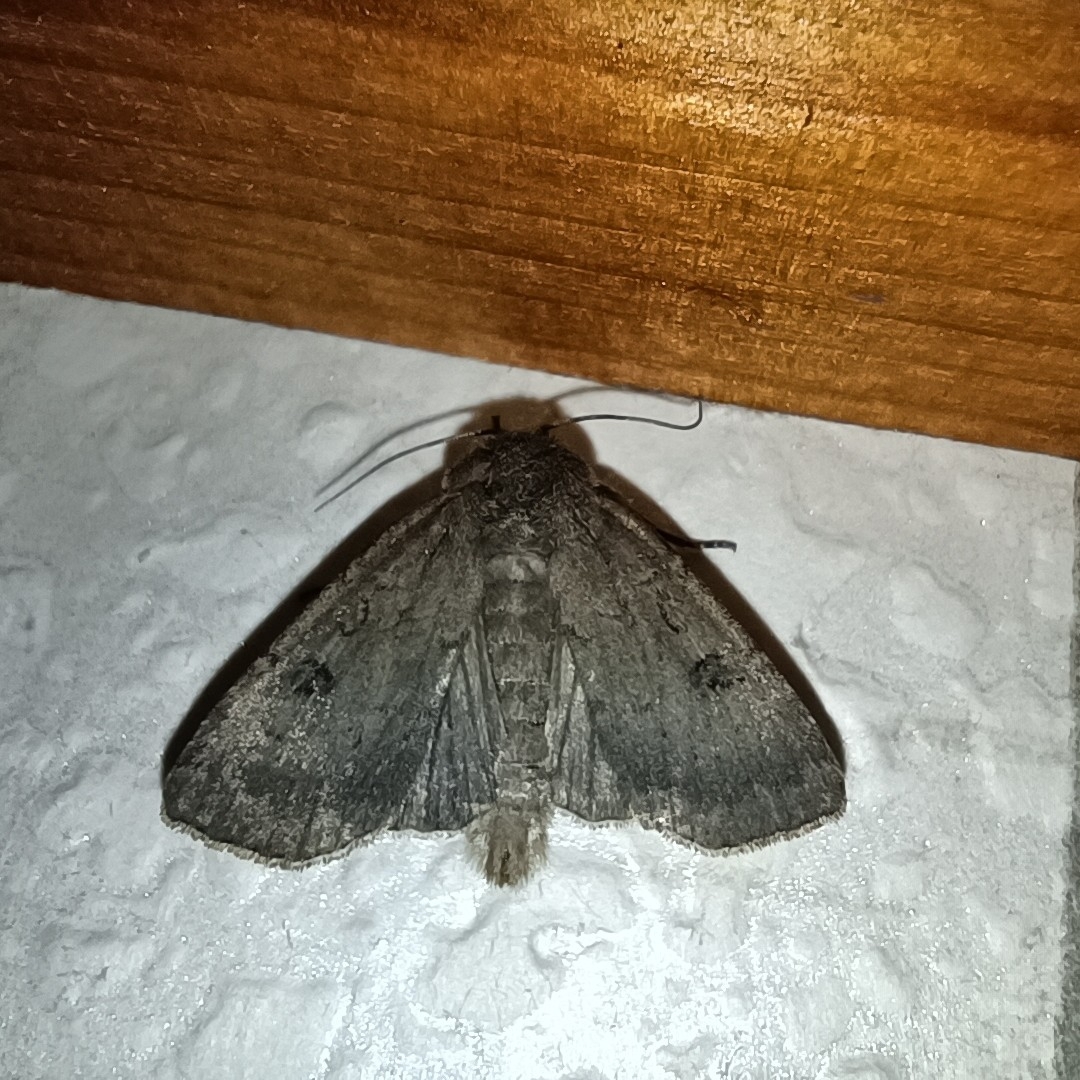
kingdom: Animalia
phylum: Arthropoda
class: Insecta
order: Lepidoptera
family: Noctuidae
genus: Graphiphora
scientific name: Graphiphora augur
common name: Double dart
